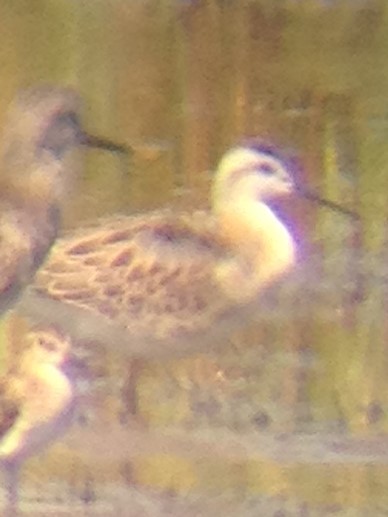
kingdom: Animalia
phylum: Chordata
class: Aves
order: Charadriiformes
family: Scolopacidae
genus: Phalaropus
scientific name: Phalaropus tricolor
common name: Wilson's phalarope
